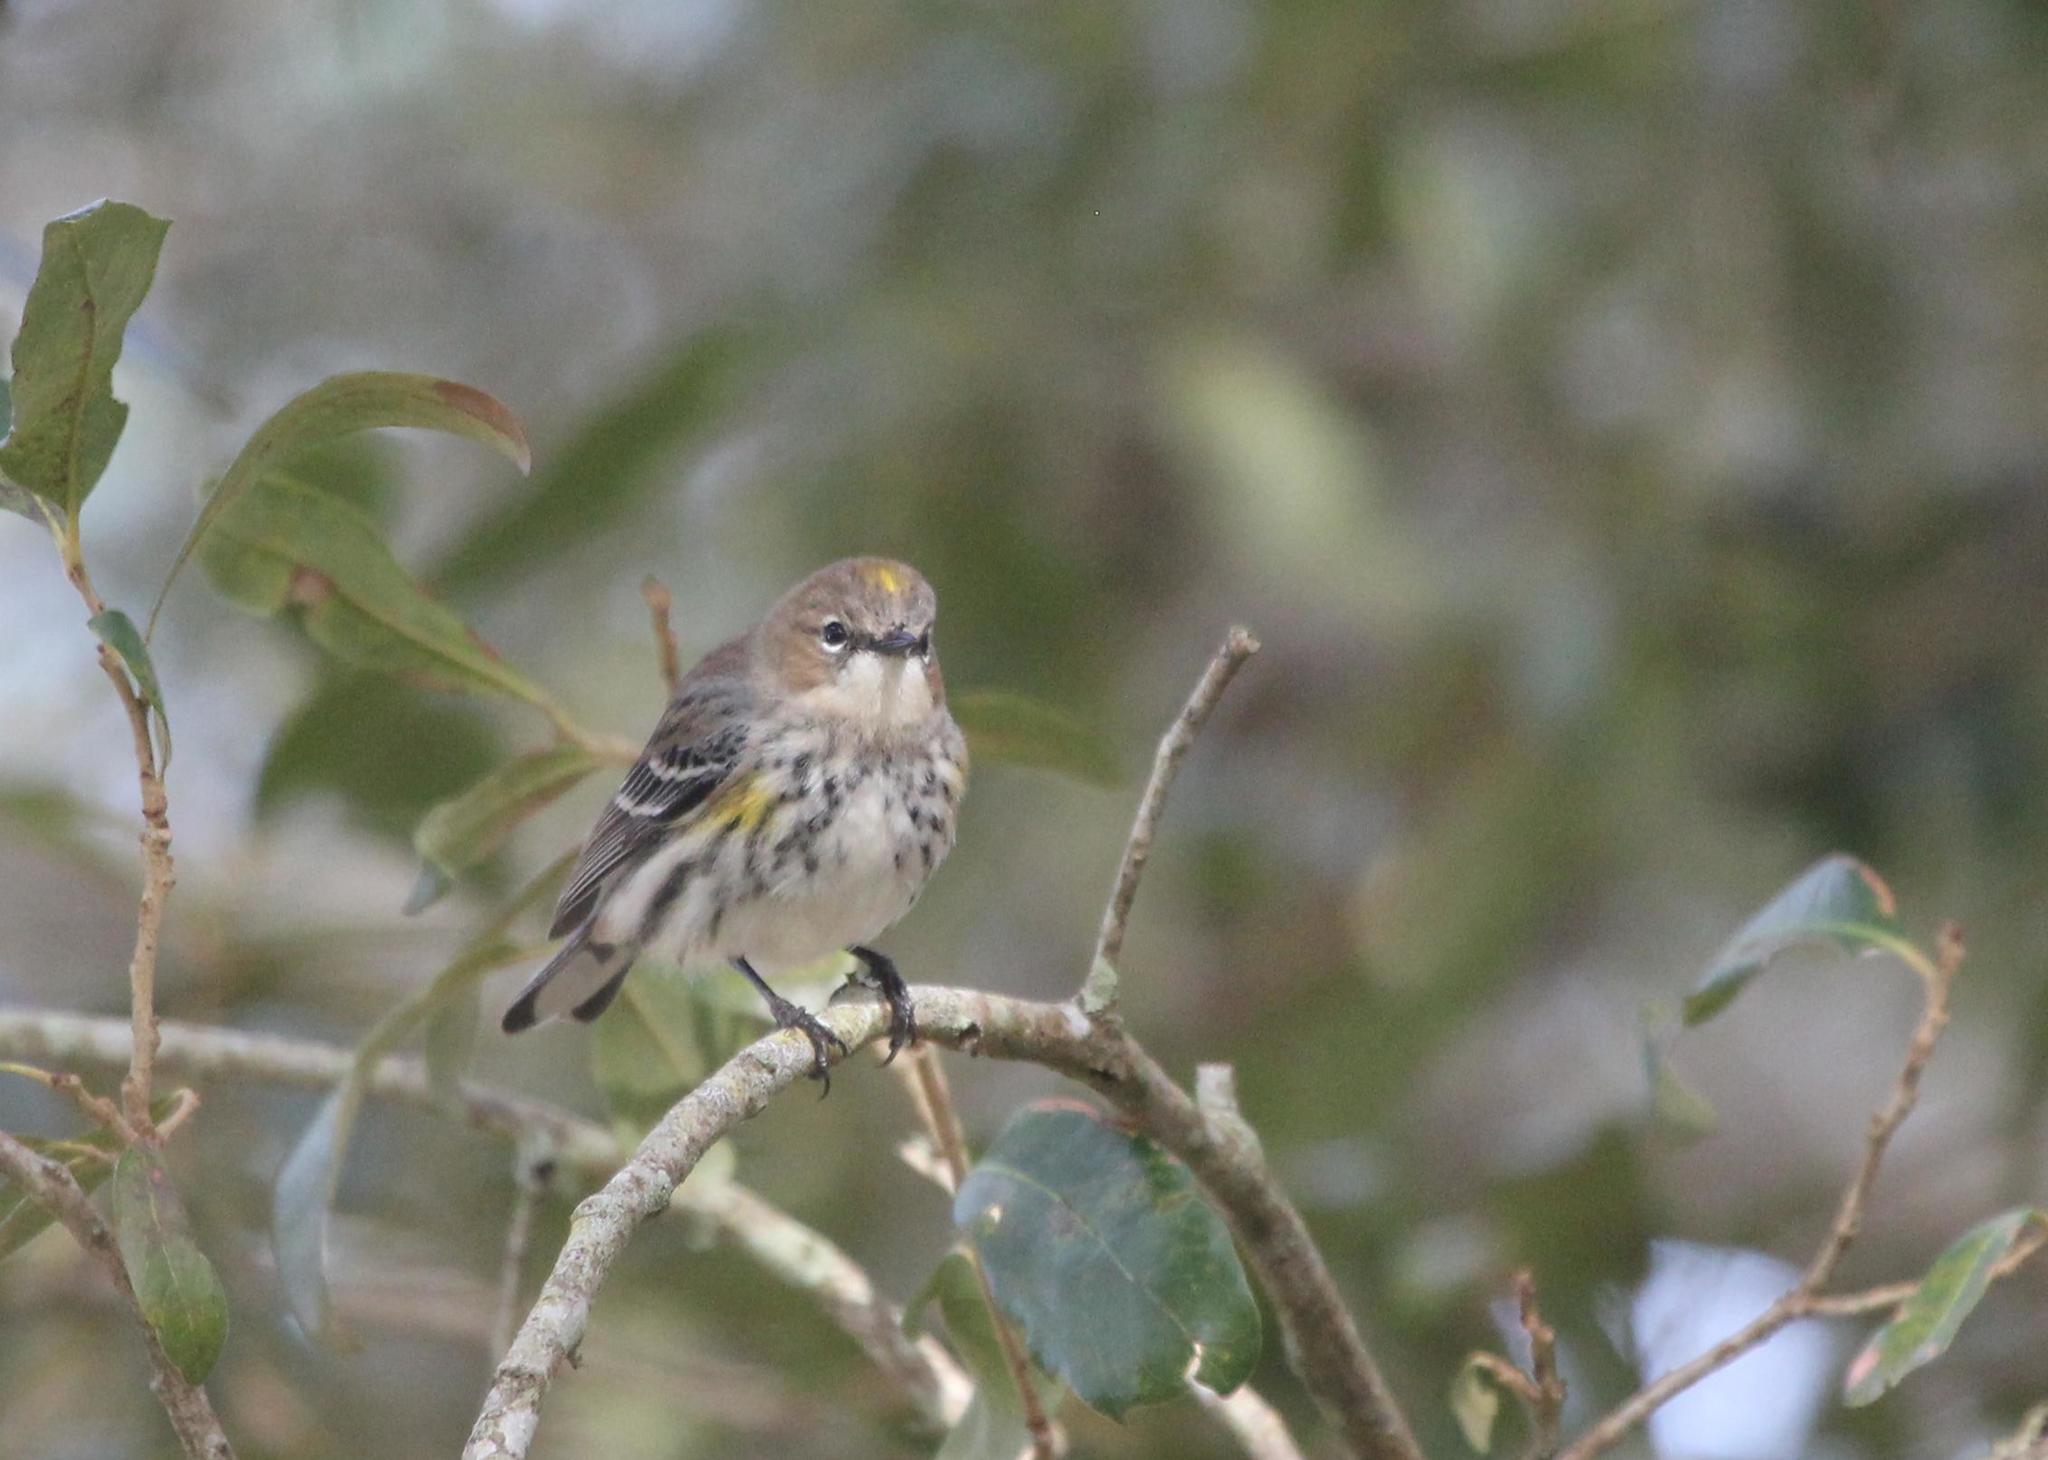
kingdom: Animalia
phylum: Chordata
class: Aves
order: Passeriformes
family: Parulidae
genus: Setophaga
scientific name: Setophaga coronata
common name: Myrtle warbler
